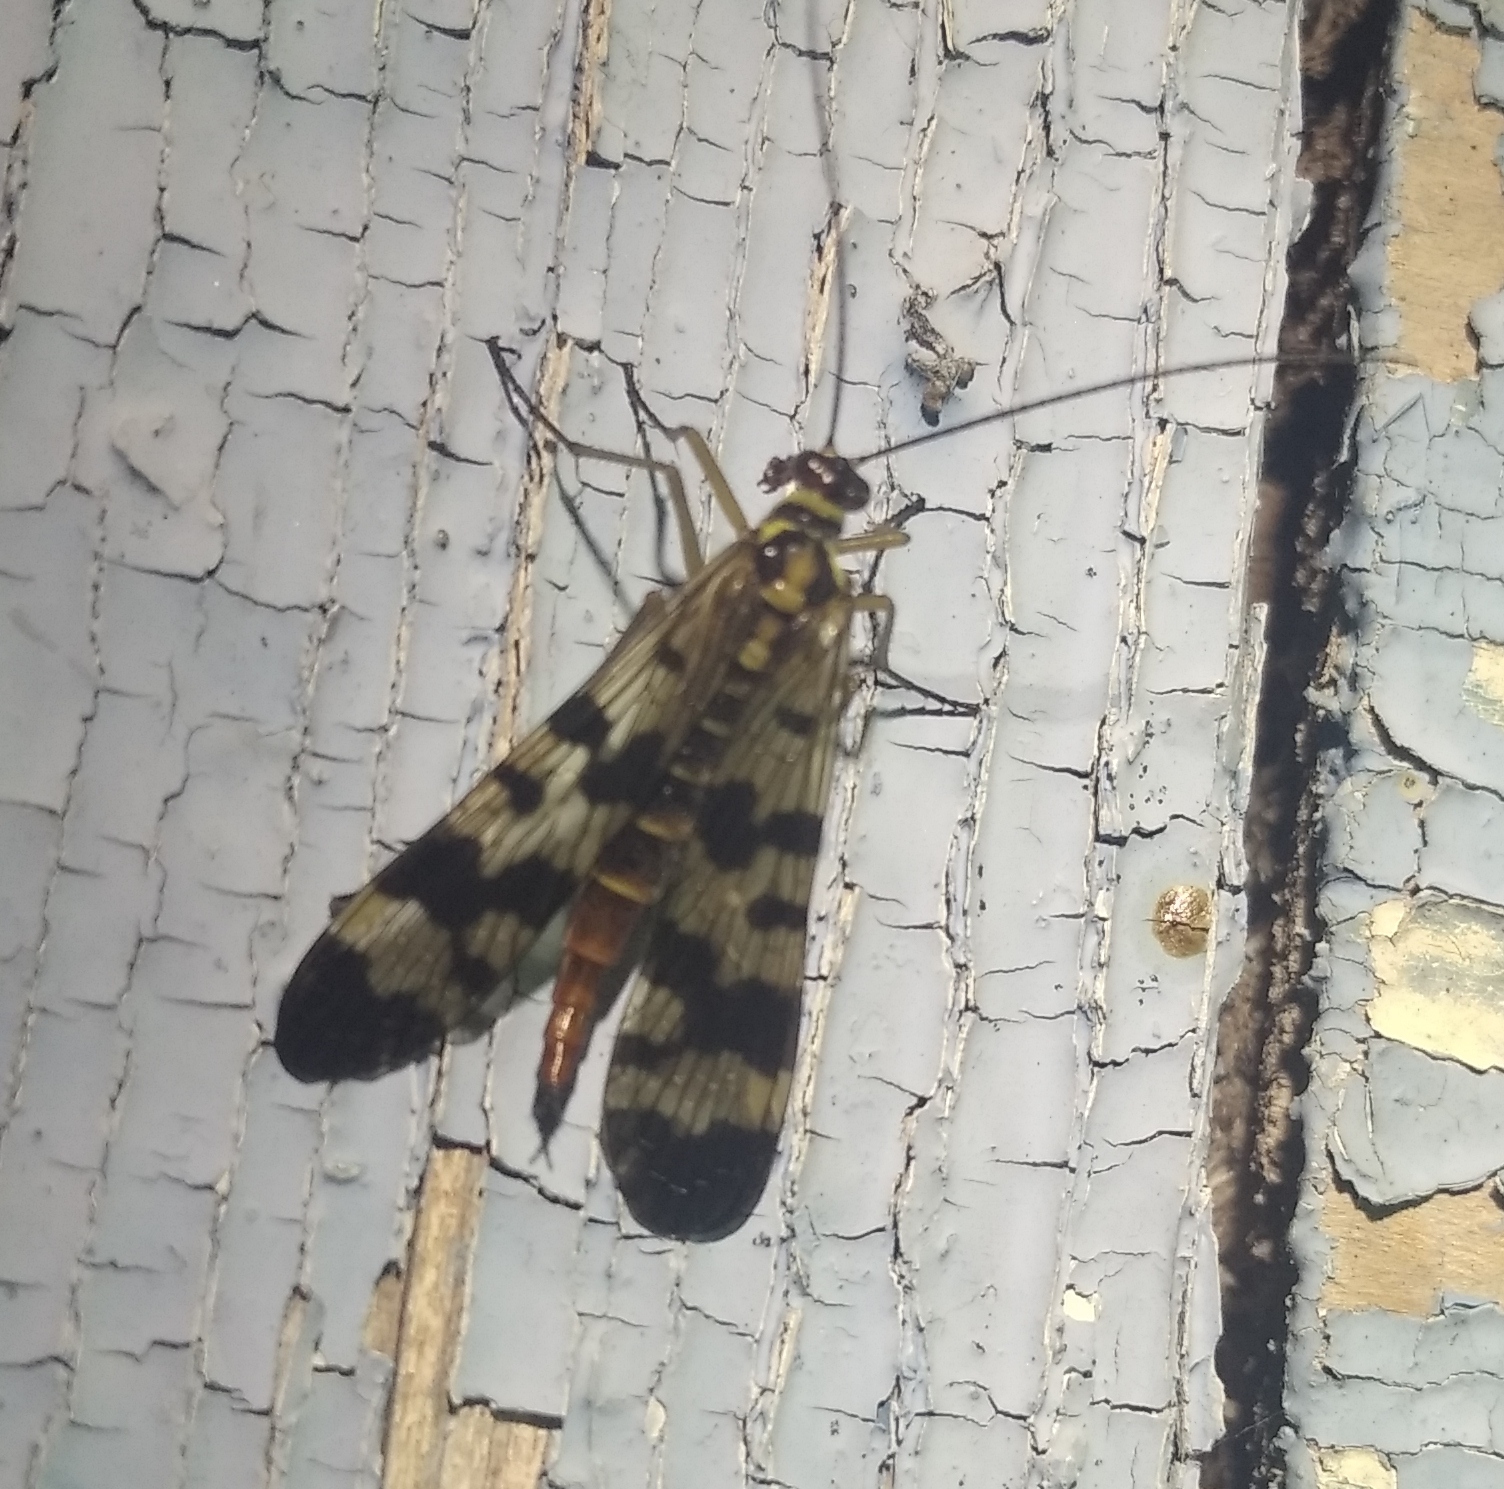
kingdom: Animalia
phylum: Arthropoda
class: Insecta
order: Mecoptera
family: Panorpidae
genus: Panorpa
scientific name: Panorpa communis
